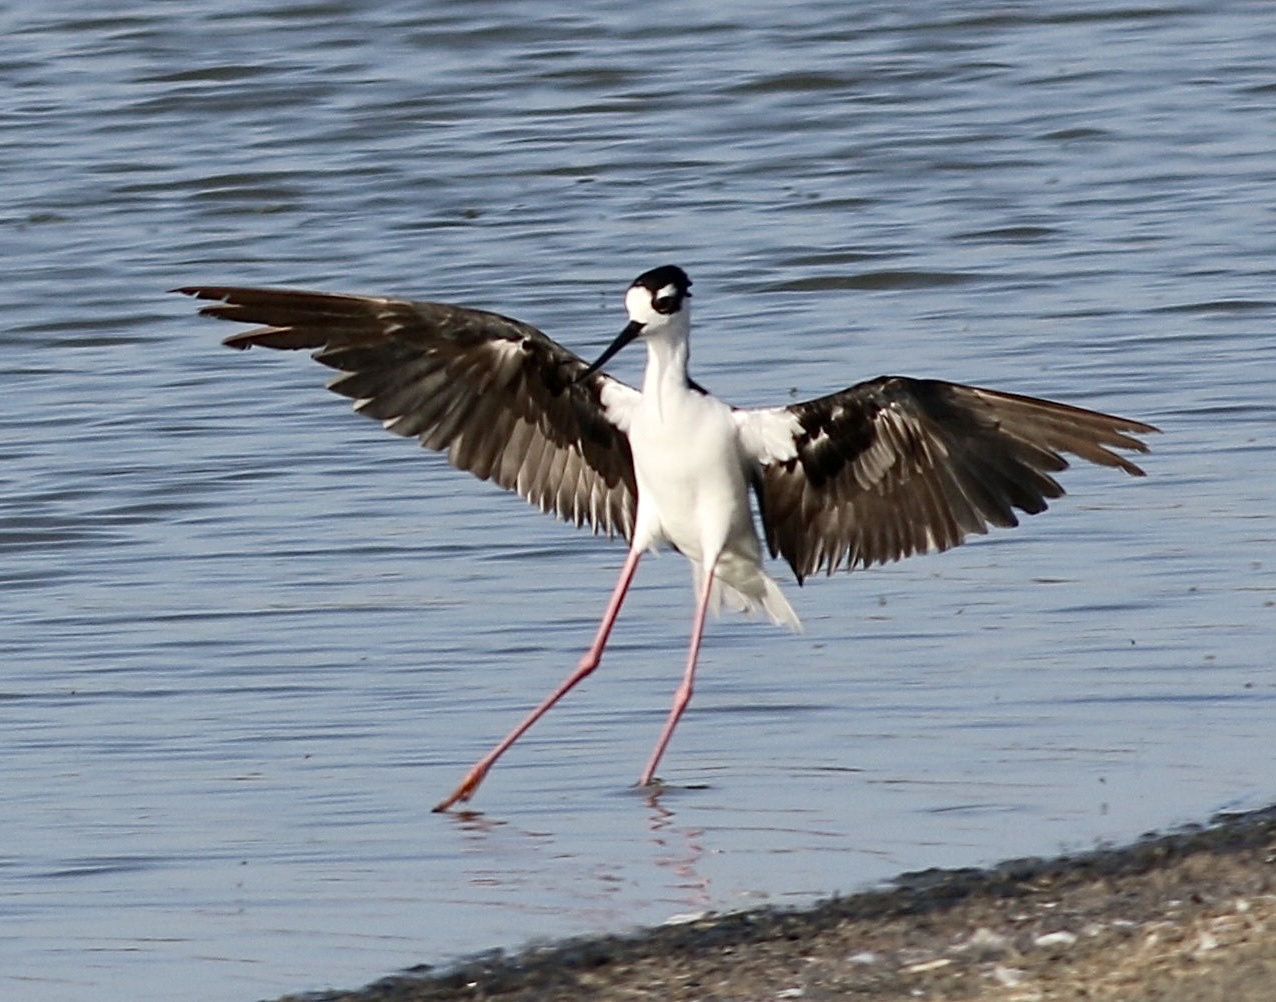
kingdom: Animalia
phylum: Chordata
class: Aves
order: Charadriiformes
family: Recurvirostridae
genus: Himantopus
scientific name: Himantopus mexicanus
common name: Black-necked stilt
